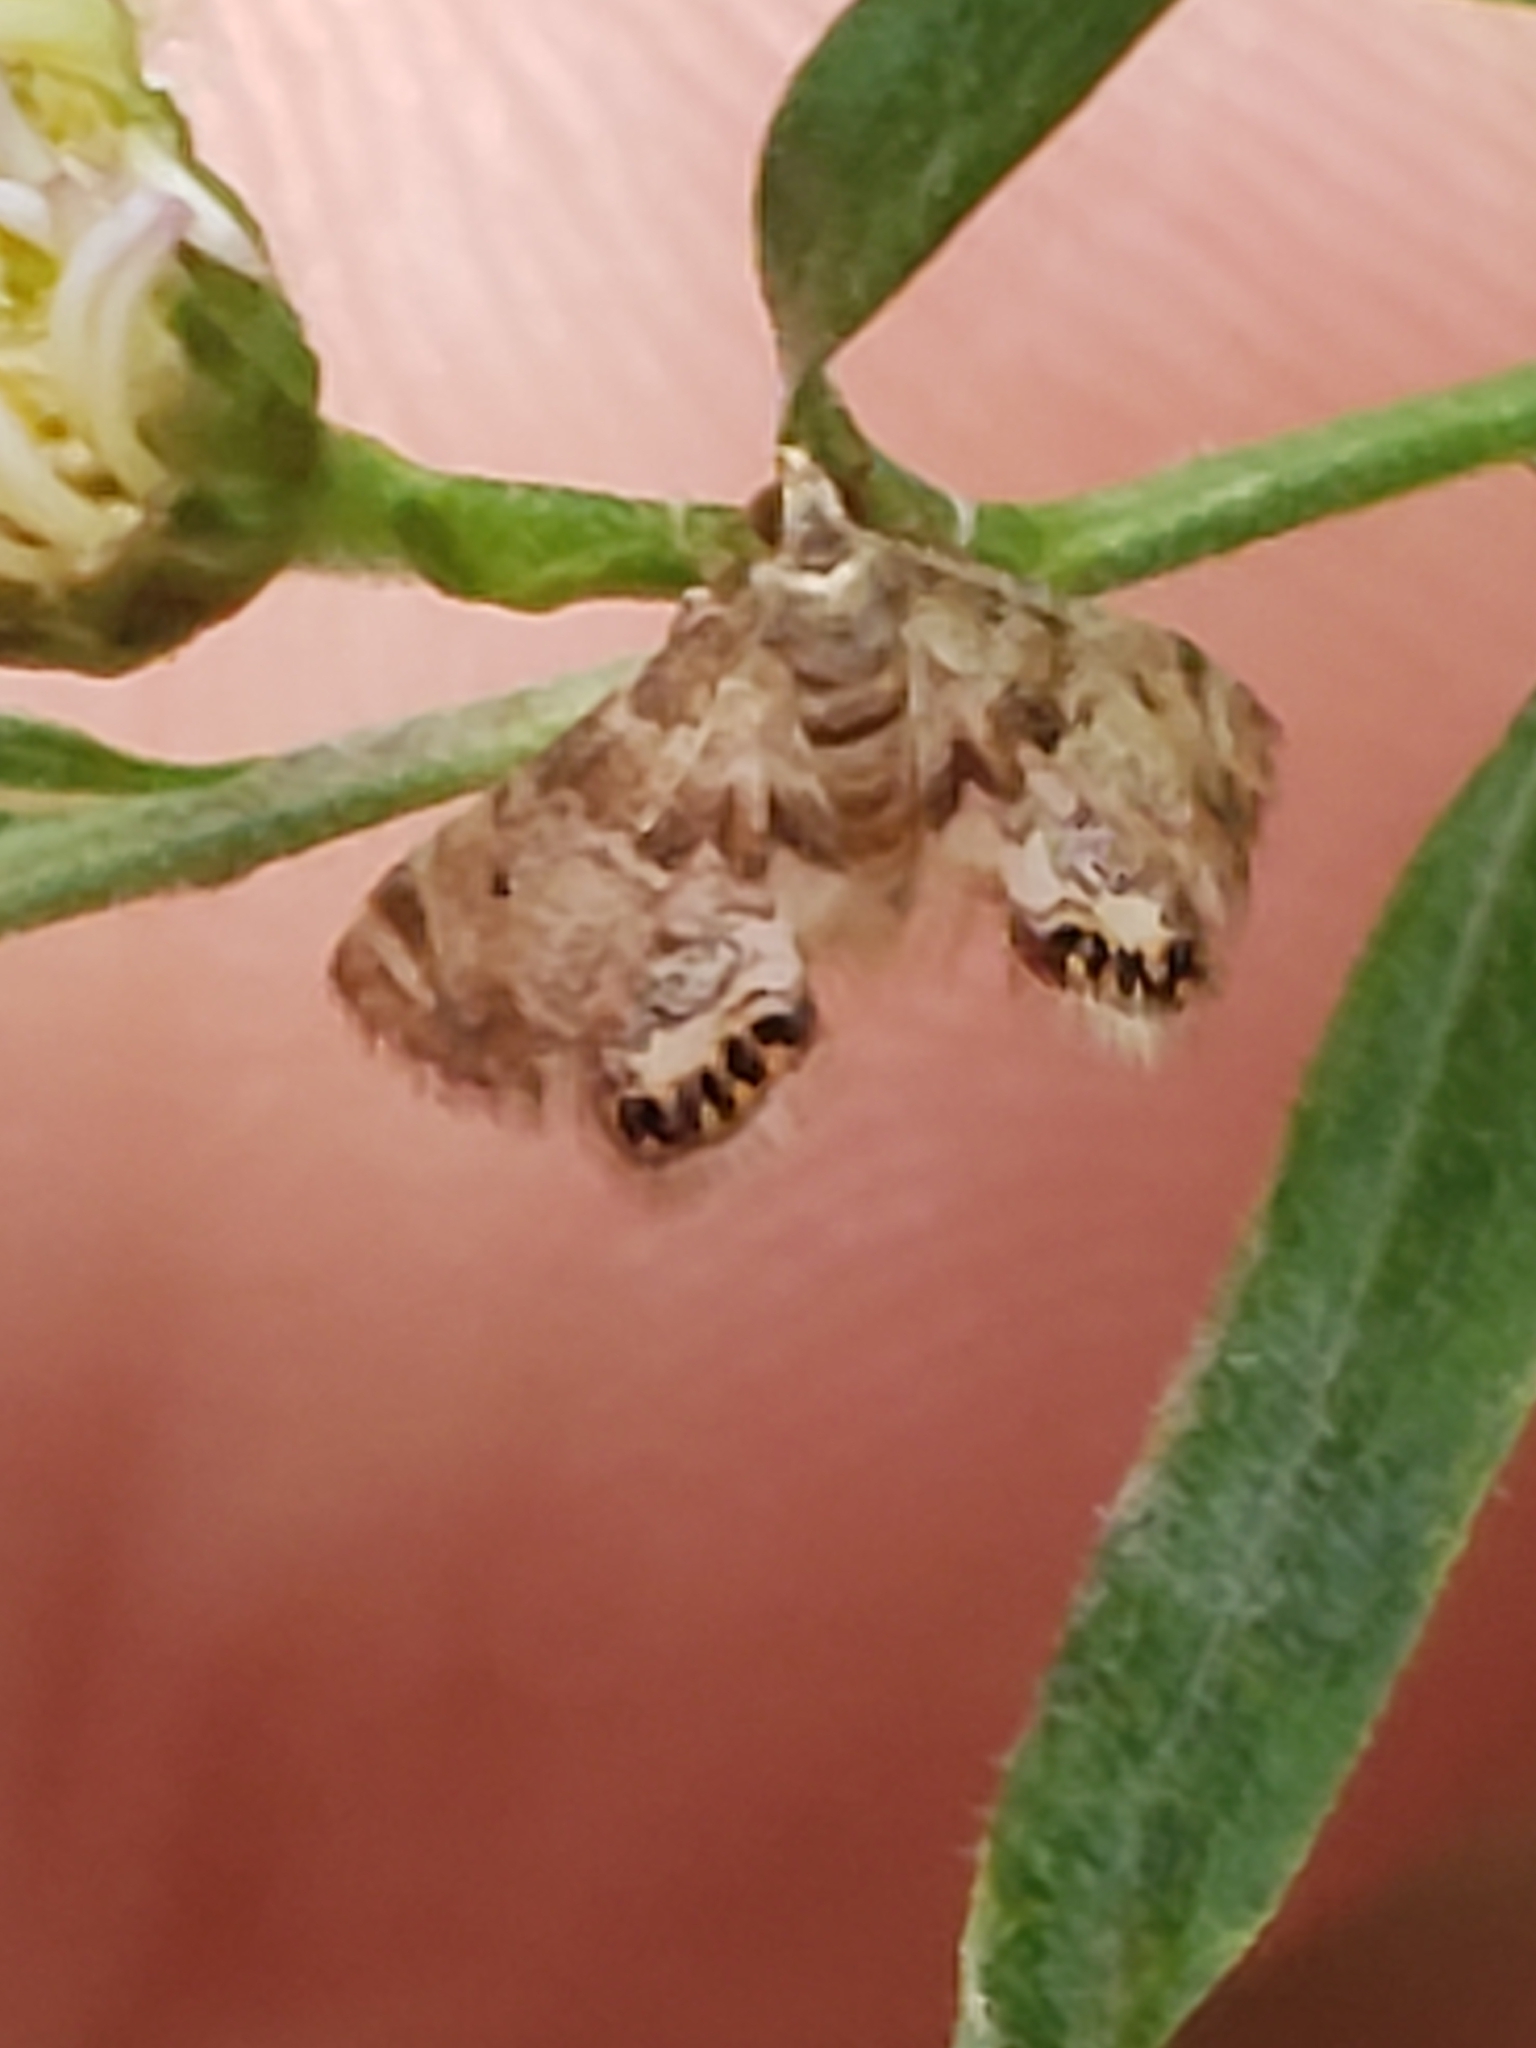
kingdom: Animalia
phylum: Arthropoda
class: Insecta
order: Lepidoptera
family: Crambidae
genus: Petrophila
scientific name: Petrophila fulicalis
